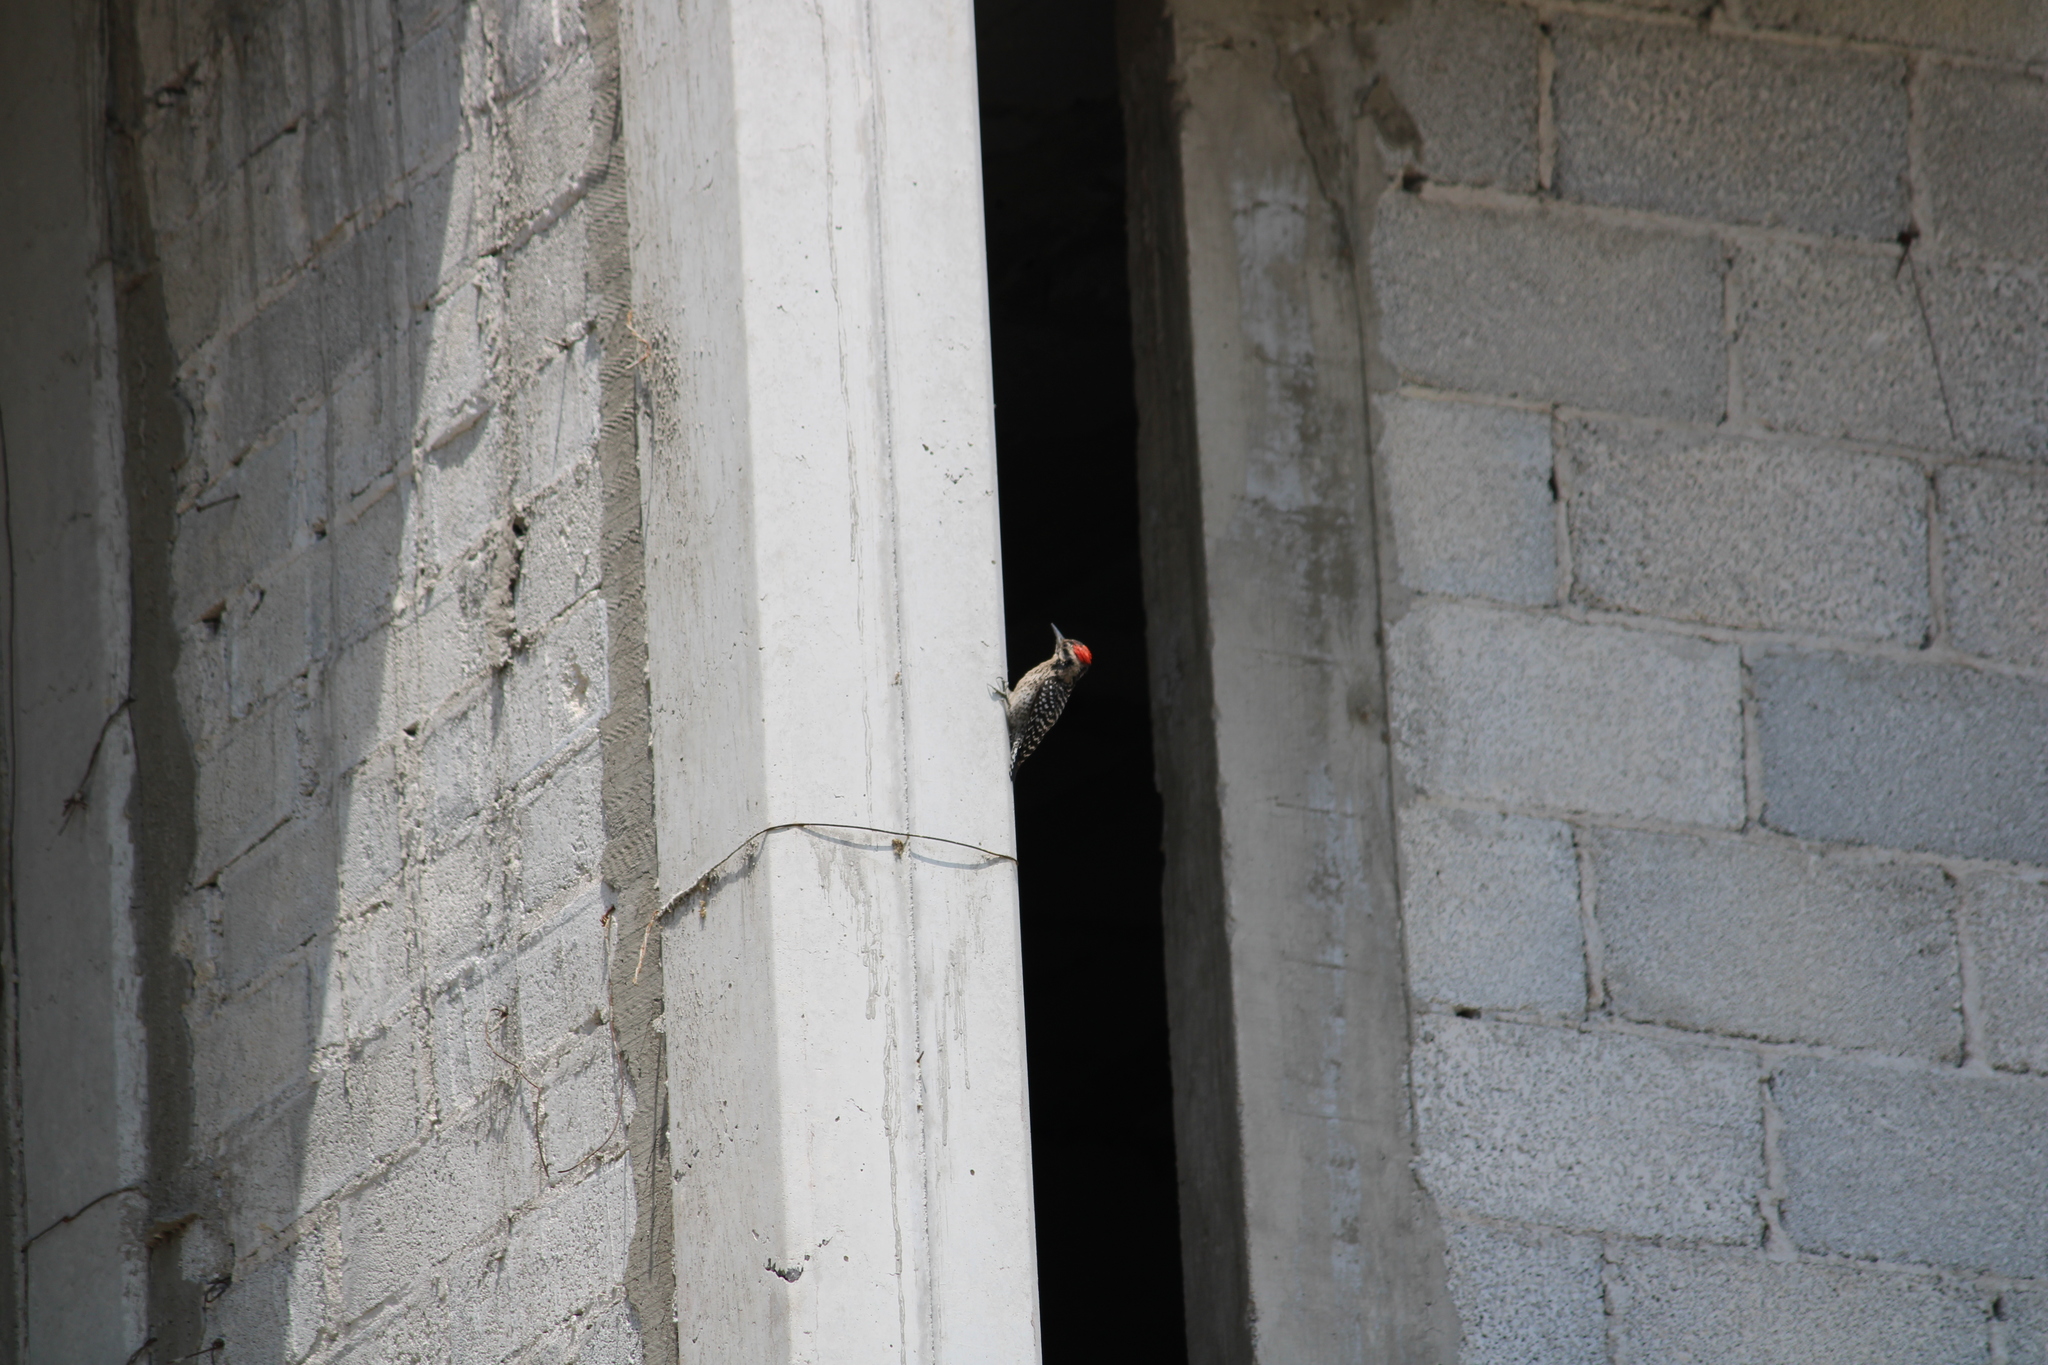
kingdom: Animalia
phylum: Chordata
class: Aves
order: Piciformes
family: Picidae
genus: Dryobates
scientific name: Dryobates scalaris
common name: Ladder-backed woodpecker
